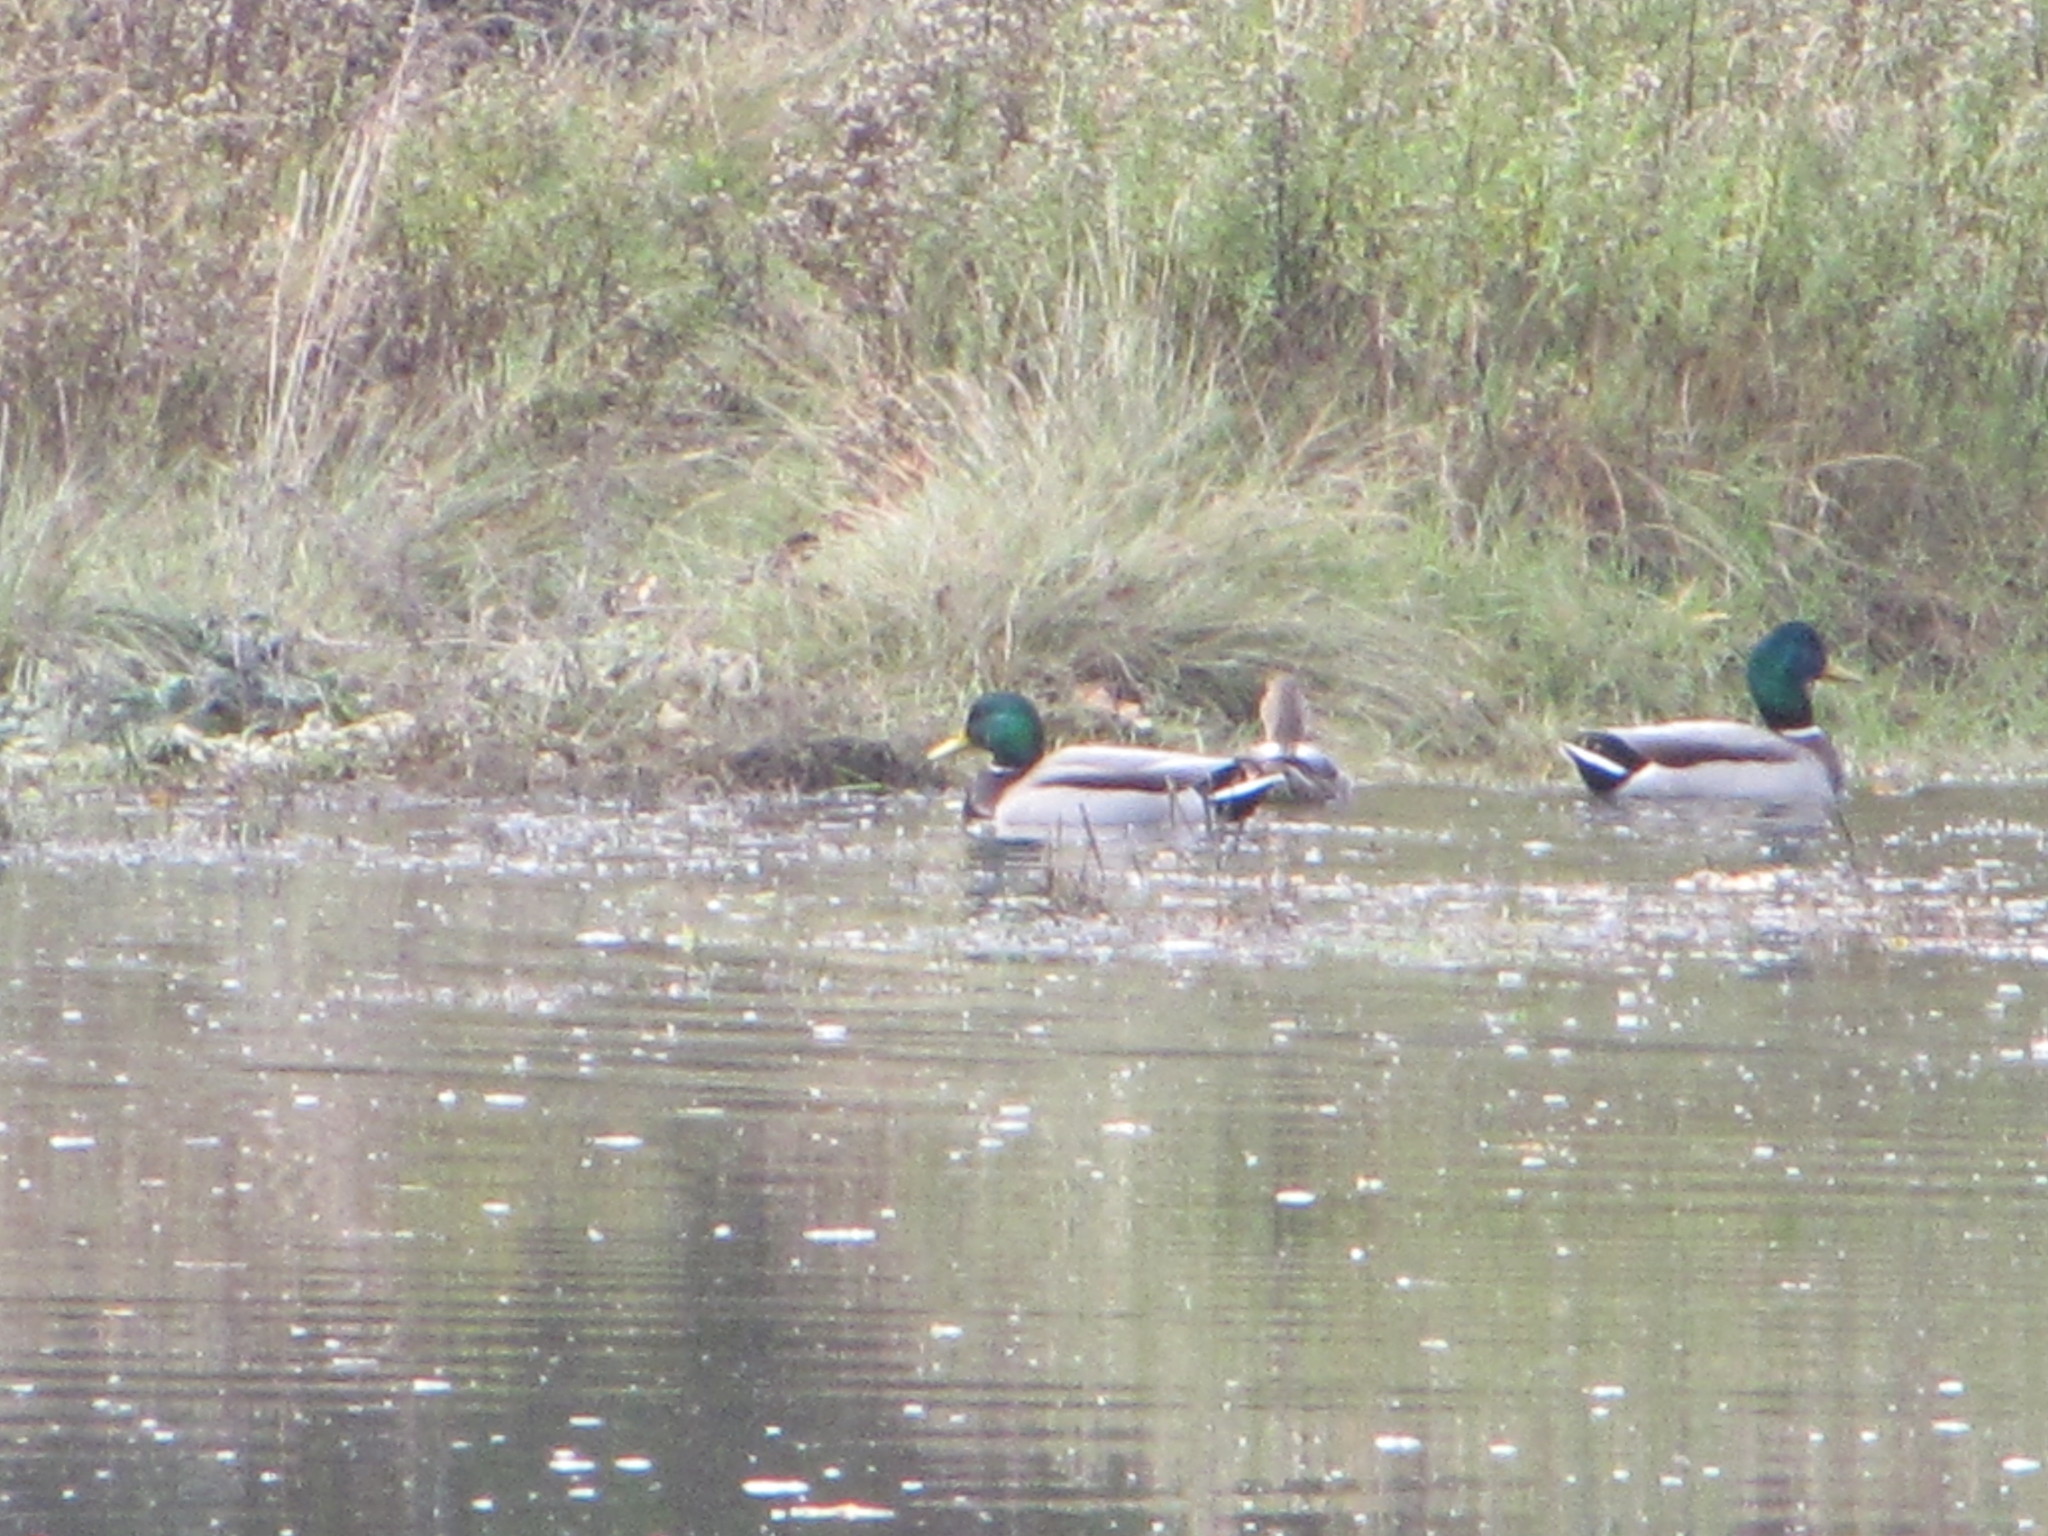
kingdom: Animalia
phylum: Chordata
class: Aves
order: Anseriformes
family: Anatidae
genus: Anas
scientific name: Anas platyrhynchos
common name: Mallard
